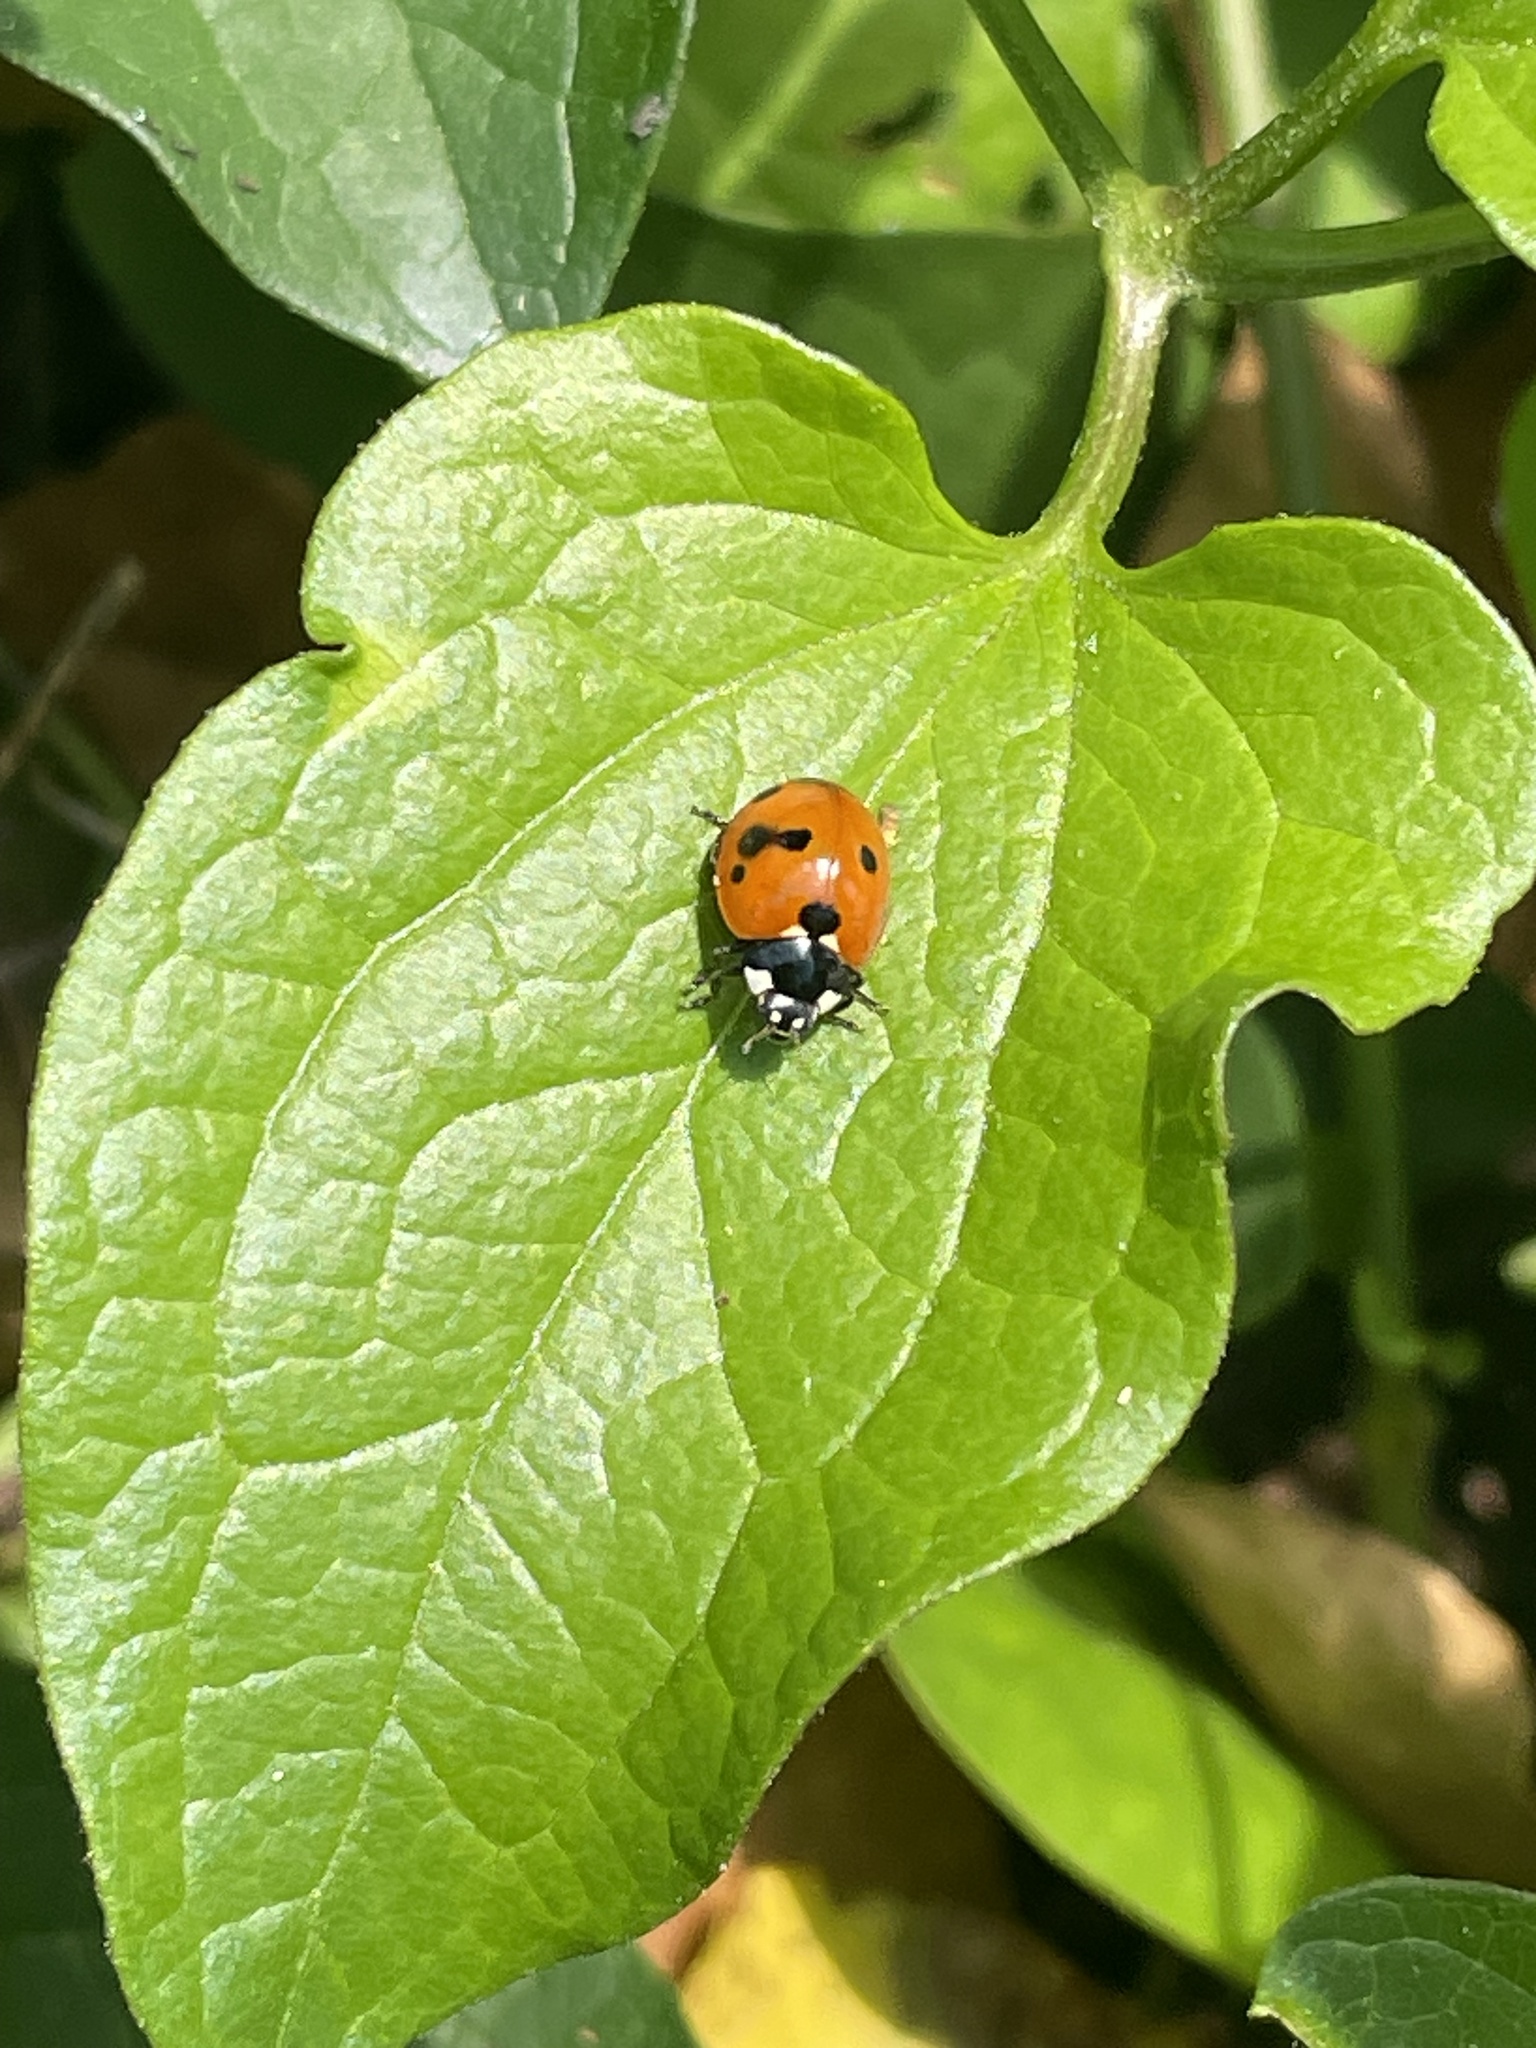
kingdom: Animalia
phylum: Arthropoda
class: Insecta
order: Coleoptera
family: Coccinellidae
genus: Coccinella
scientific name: Coccinella septempunctata
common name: Sevenspotted lady beetle
